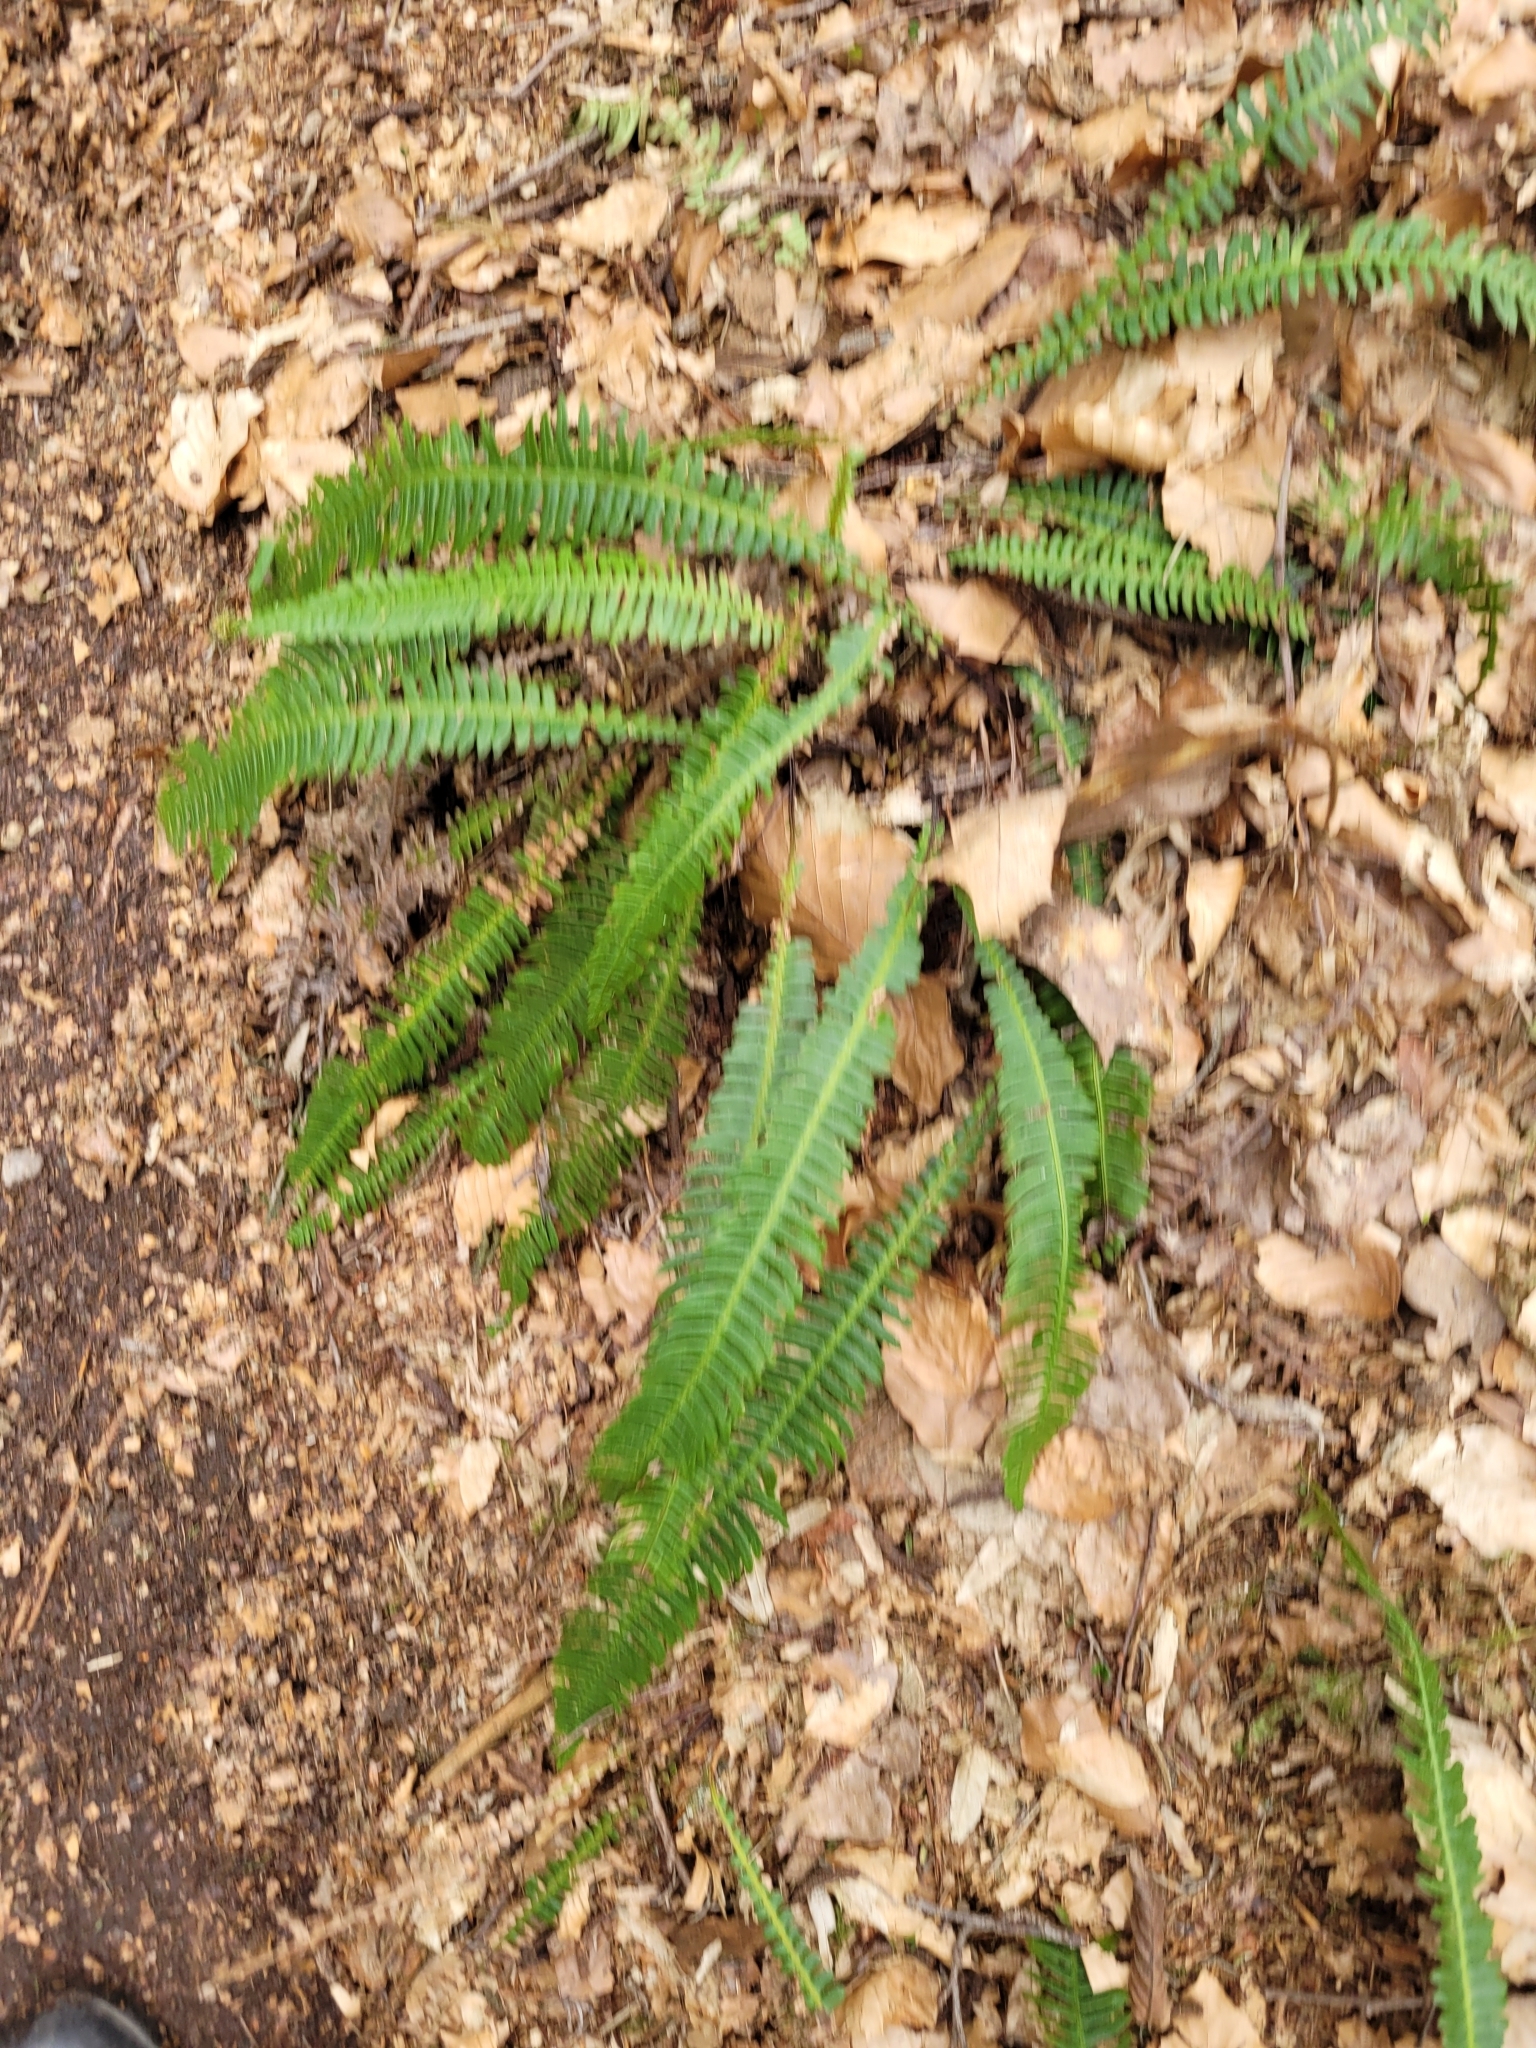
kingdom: Plantae
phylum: Tracheophyta
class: Polypodiopsida
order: Polypodiales
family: Blechnaceae
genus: Struthiopteris
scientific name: Struthiopteris spicant
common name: Deer fern
